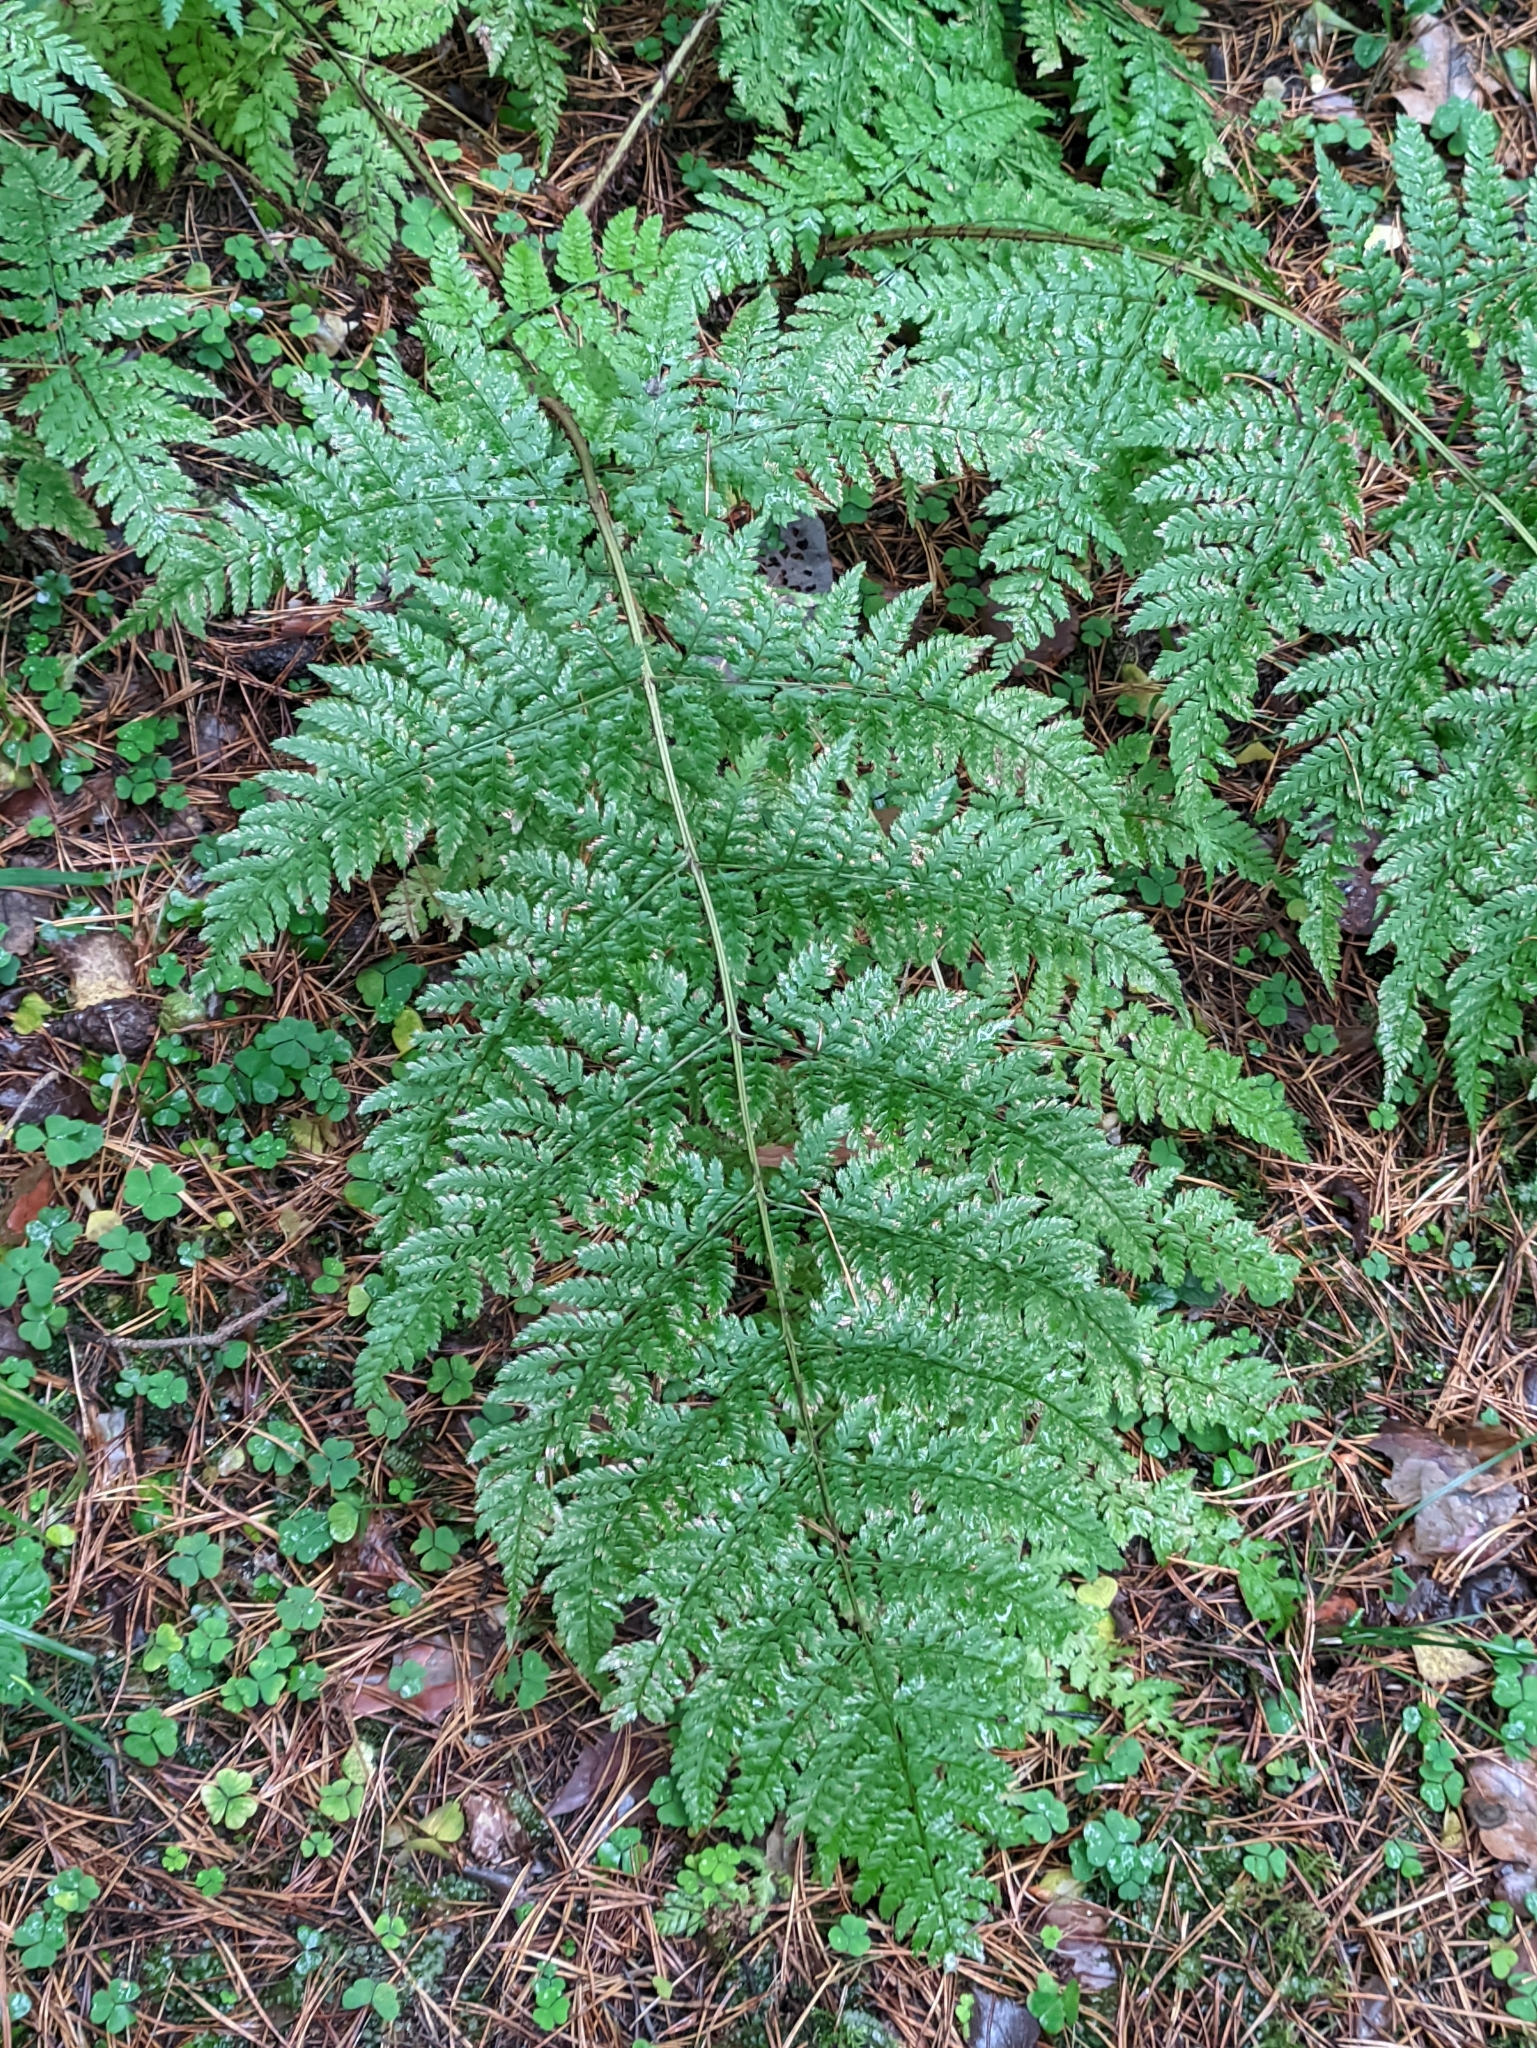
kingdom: Plantae
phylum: Tracheophyta
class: Polypodiopsida
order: Polypodiales
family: Dryopteridaceae
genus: Dryopteris
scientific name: Dryopteris expansa
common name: Northern buckler fern
